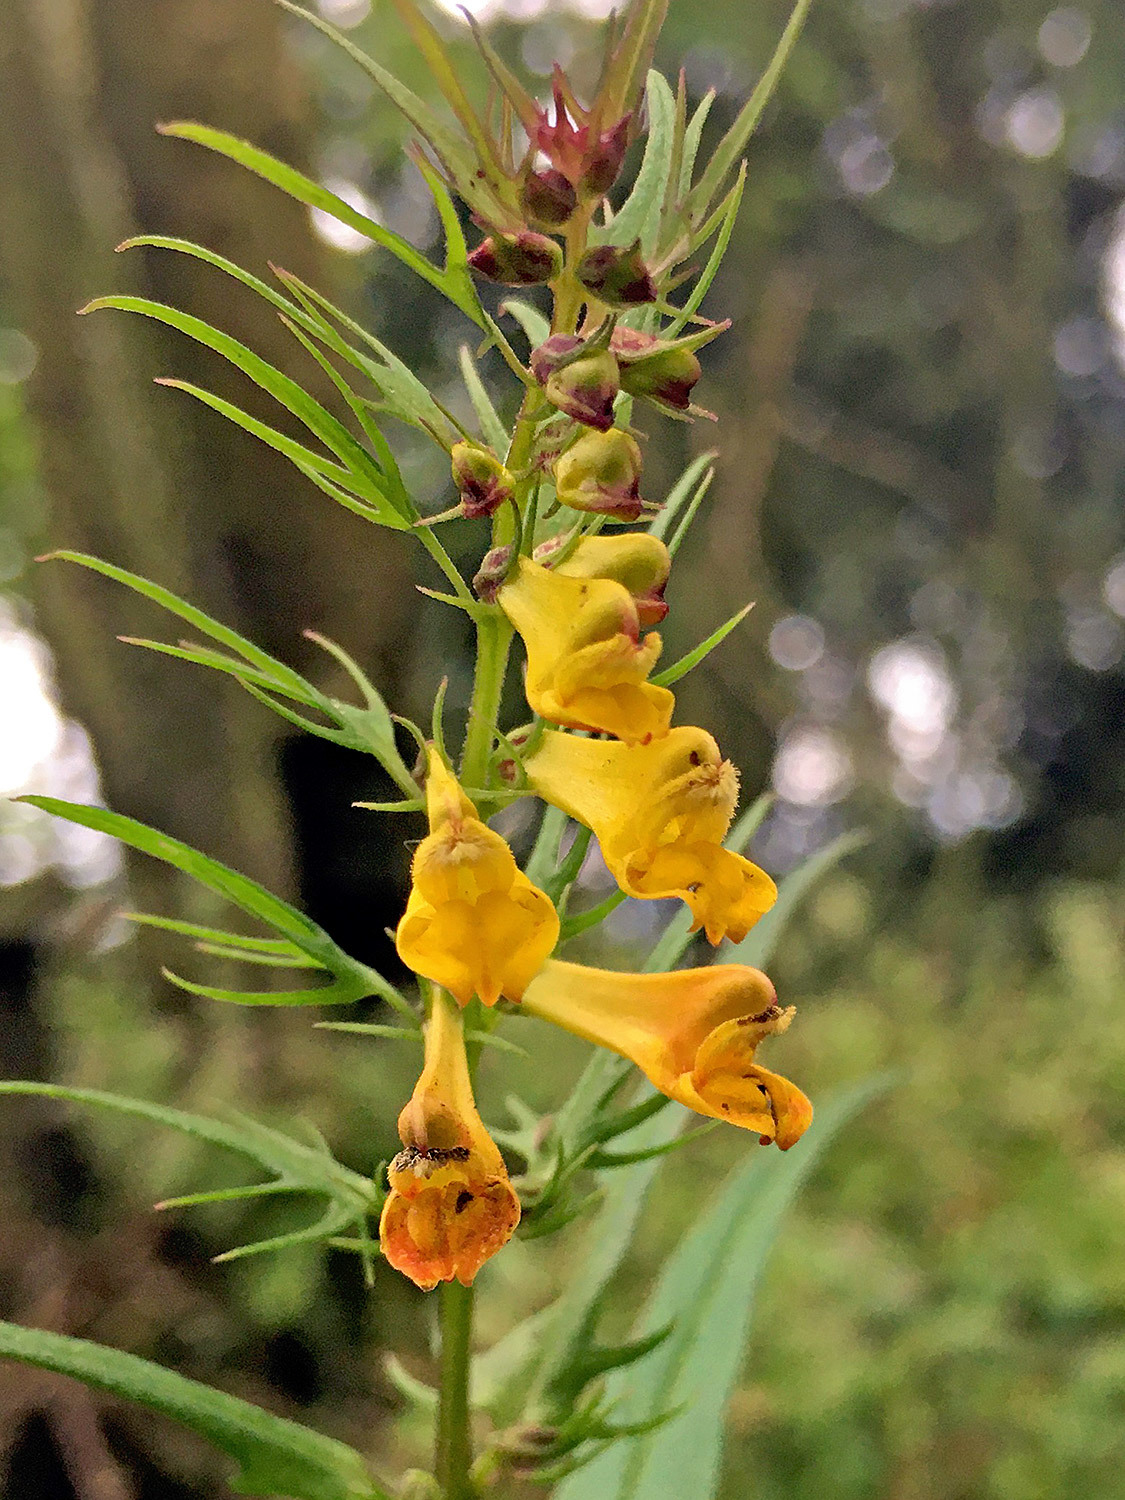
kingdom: Plantae
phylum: Tracheophyta
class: Magnoliopsida
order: Lamiales
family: Orobanchaceae
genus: Melampyrum
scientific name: Melampyrum pratense
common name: Common cow-wheat
